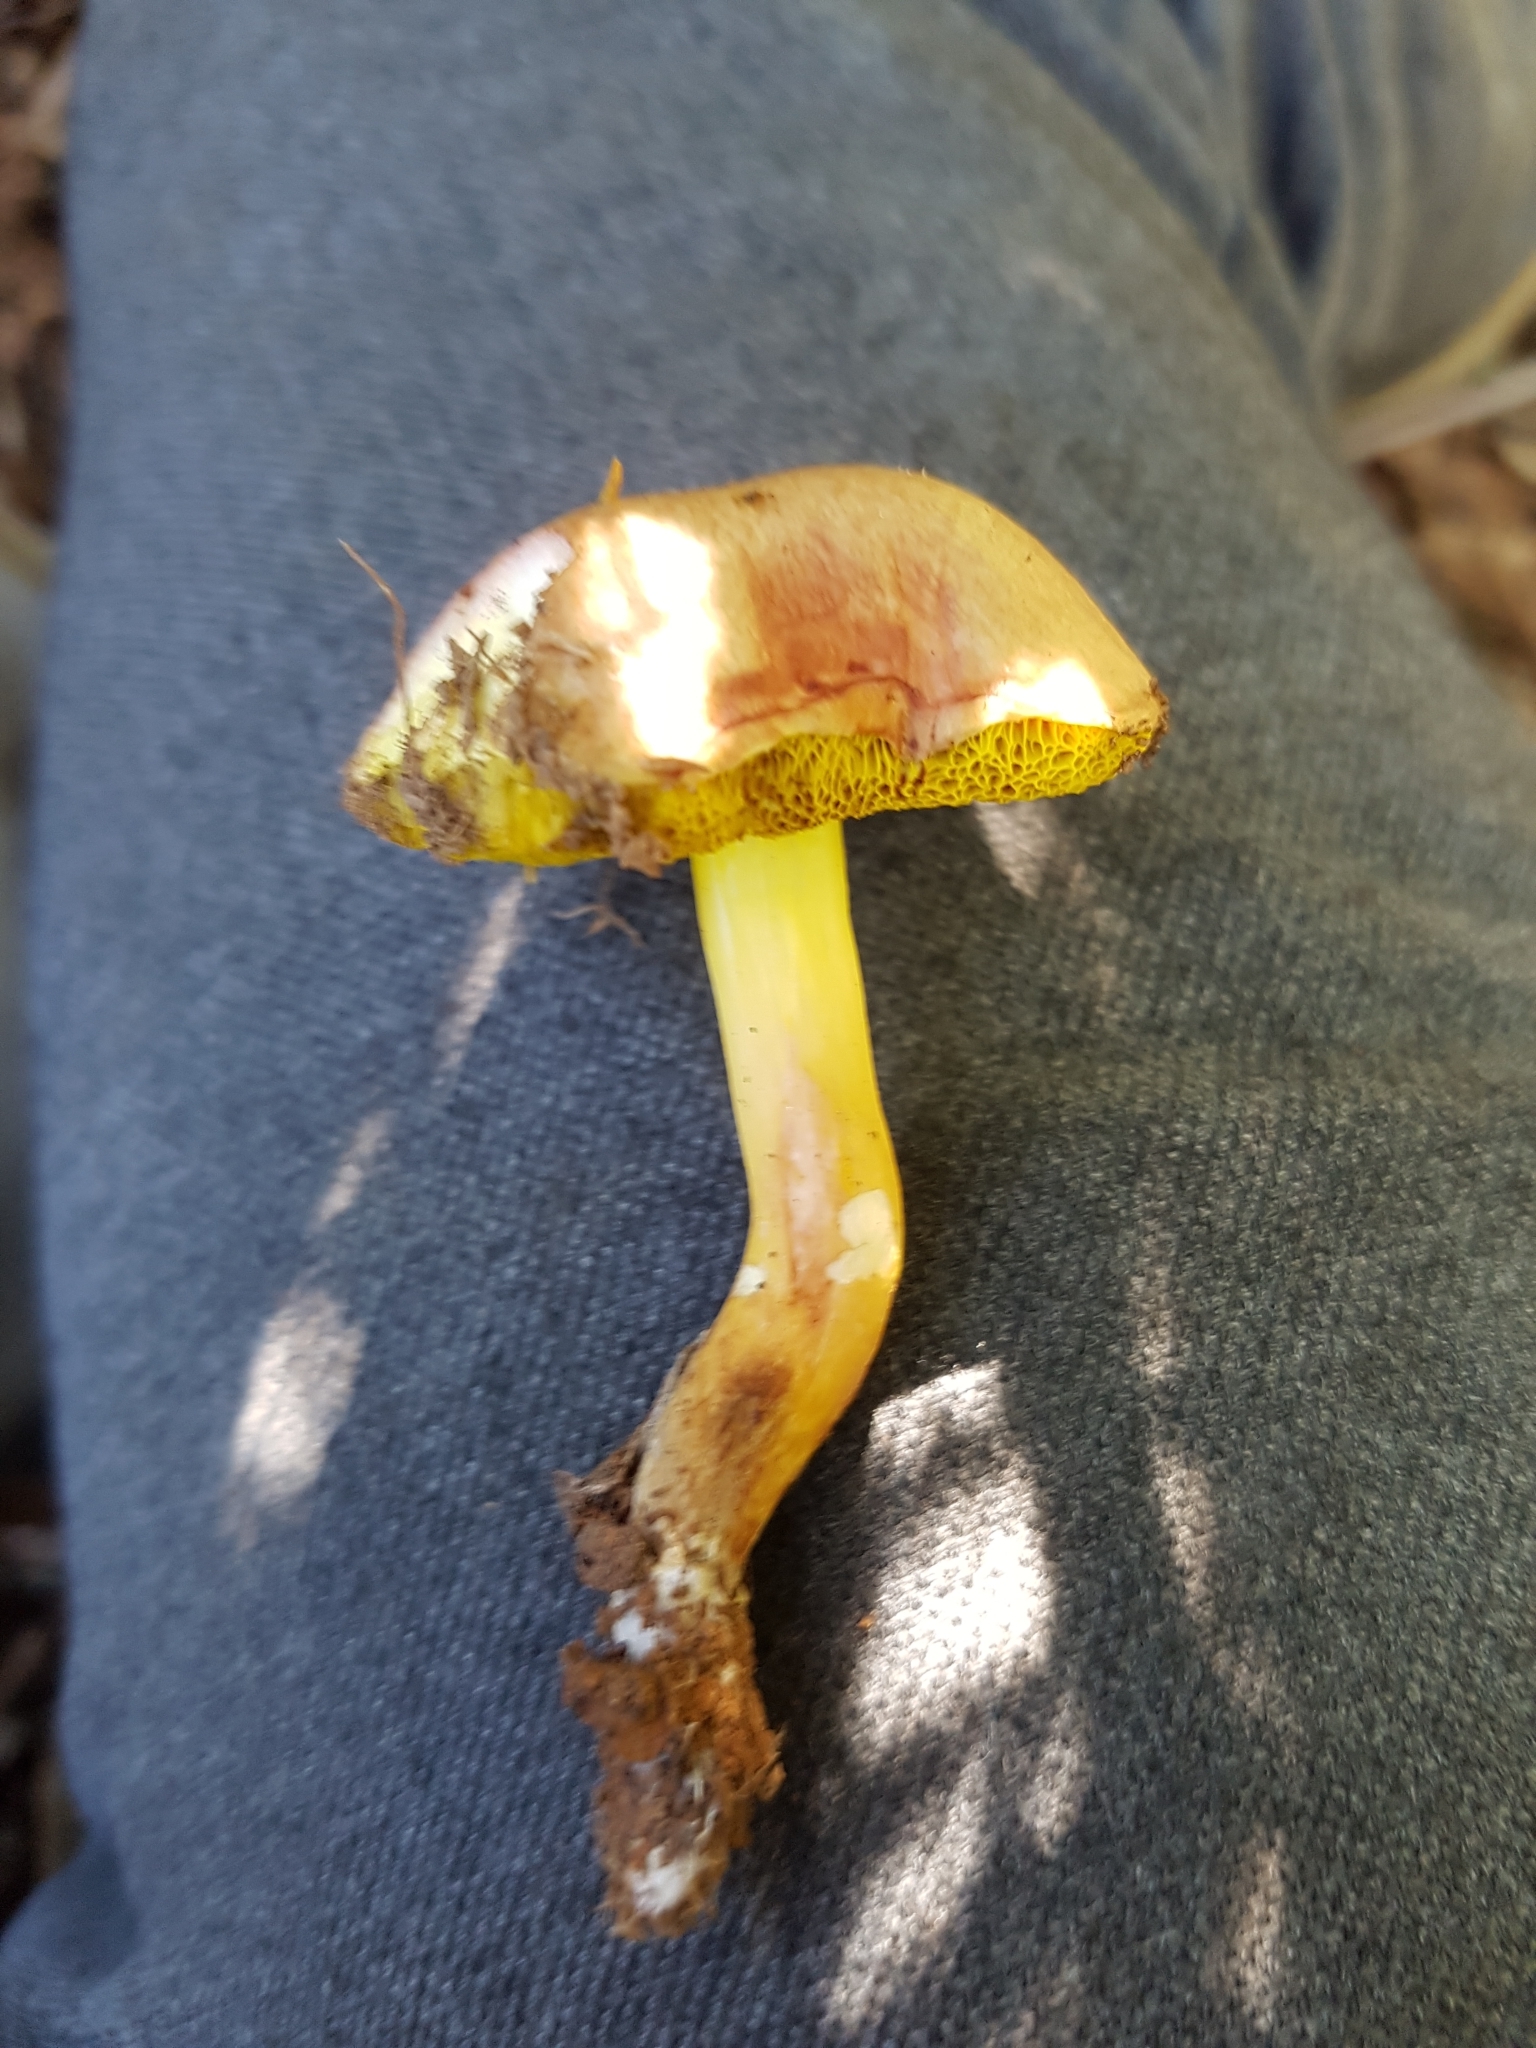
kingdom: Fungi
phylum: Basidiomycota
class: Agaricomycetes
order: Boletales
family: Boletaceae
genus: Aureoboletus
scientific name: Aureoboletus gentilis
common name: Gilded bolete
